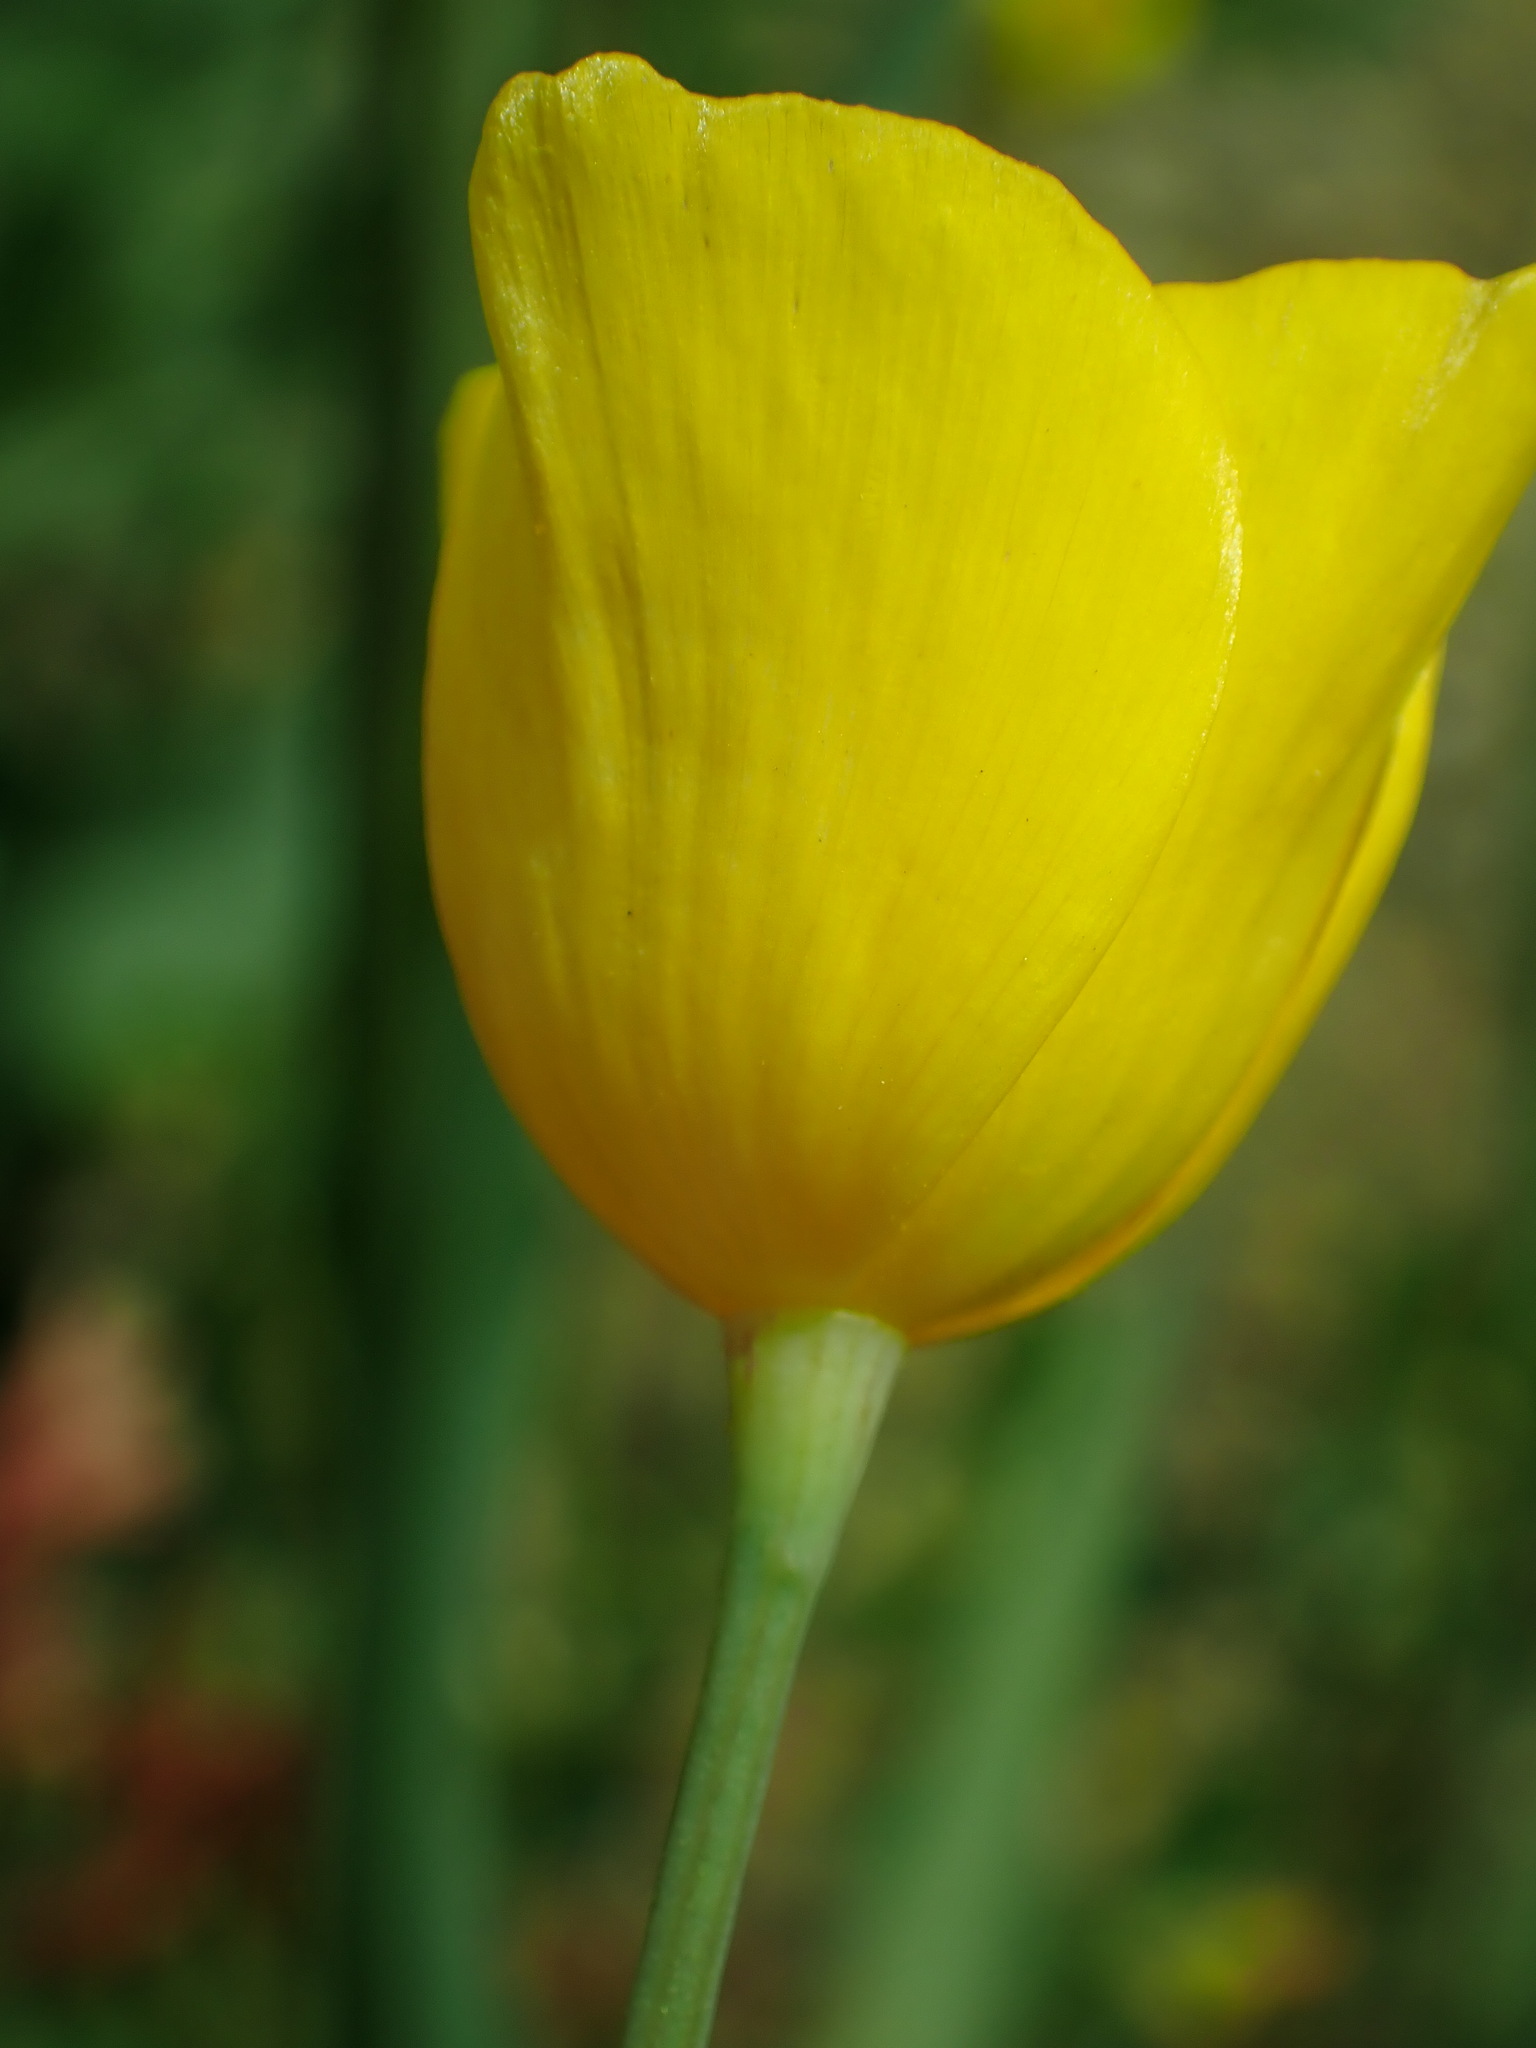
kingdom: Plantae
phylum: Tracheophyta
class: Magnoliopsida
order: Ranunculales
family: Papaveraceae
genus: Eschscholzia
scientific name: Eschscholzia caespitosa
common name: Tufted california-poppy
